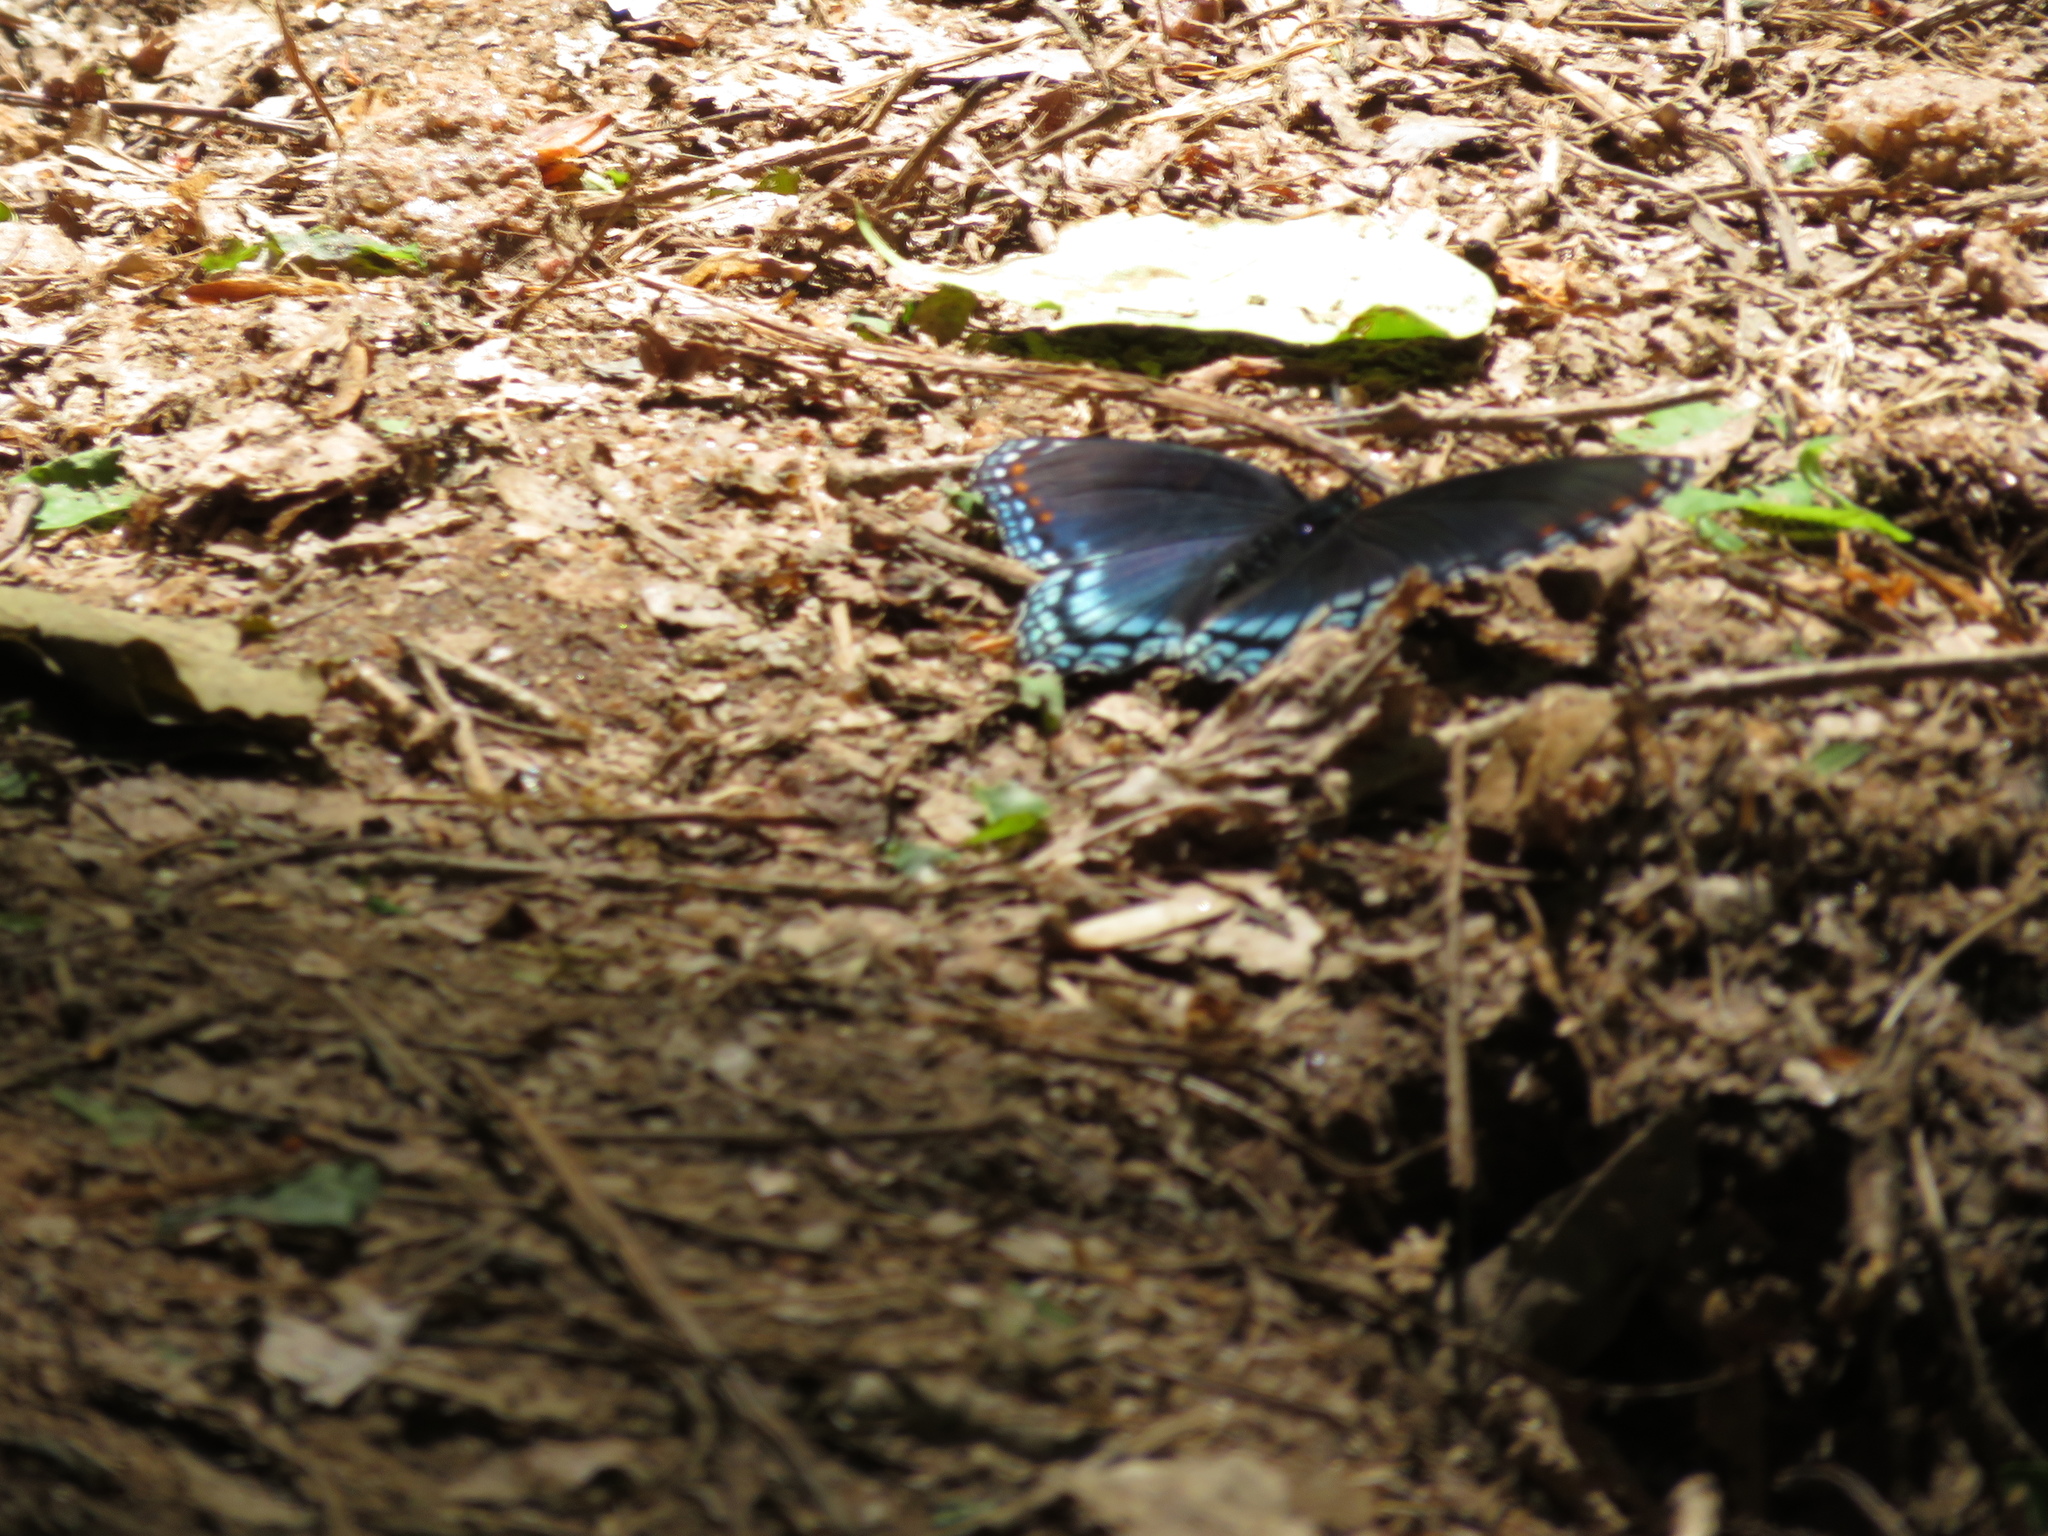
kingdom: Animalia
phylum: Arthropoda
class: Insecta
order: Lepidoptera
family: Nymphalidae
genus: Limenitis
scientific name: Limenitis astyanax
